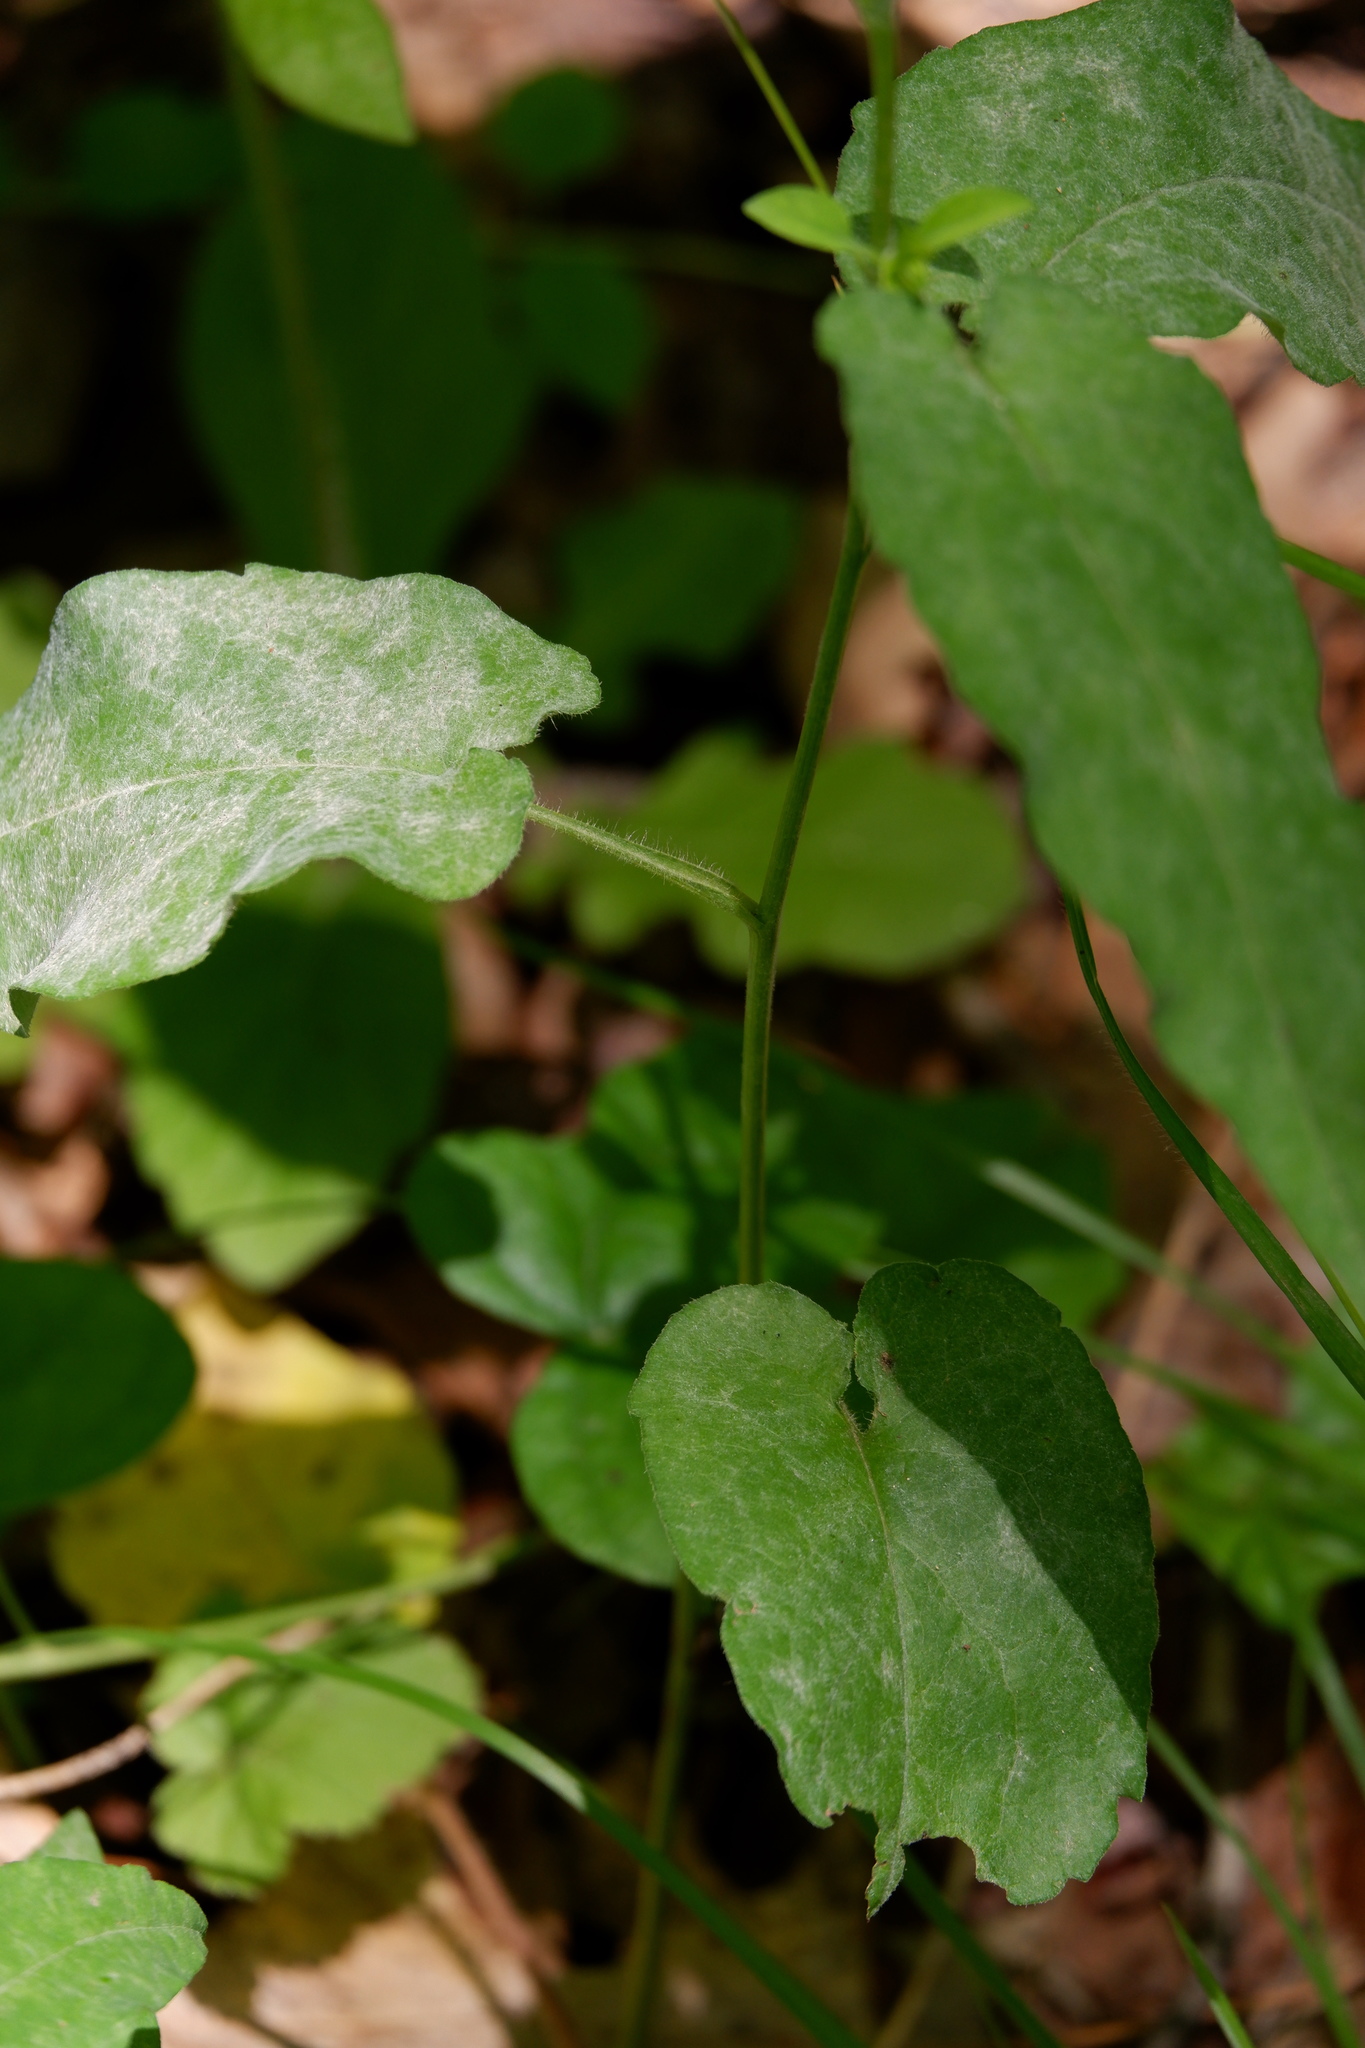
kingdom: Plantae
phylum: Tracheophyta
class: Magnoliopsida
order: Asterales
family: Asteraceae
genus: Symphyotrichum
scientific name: Symphyotrichum shortii
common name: Short's aster
